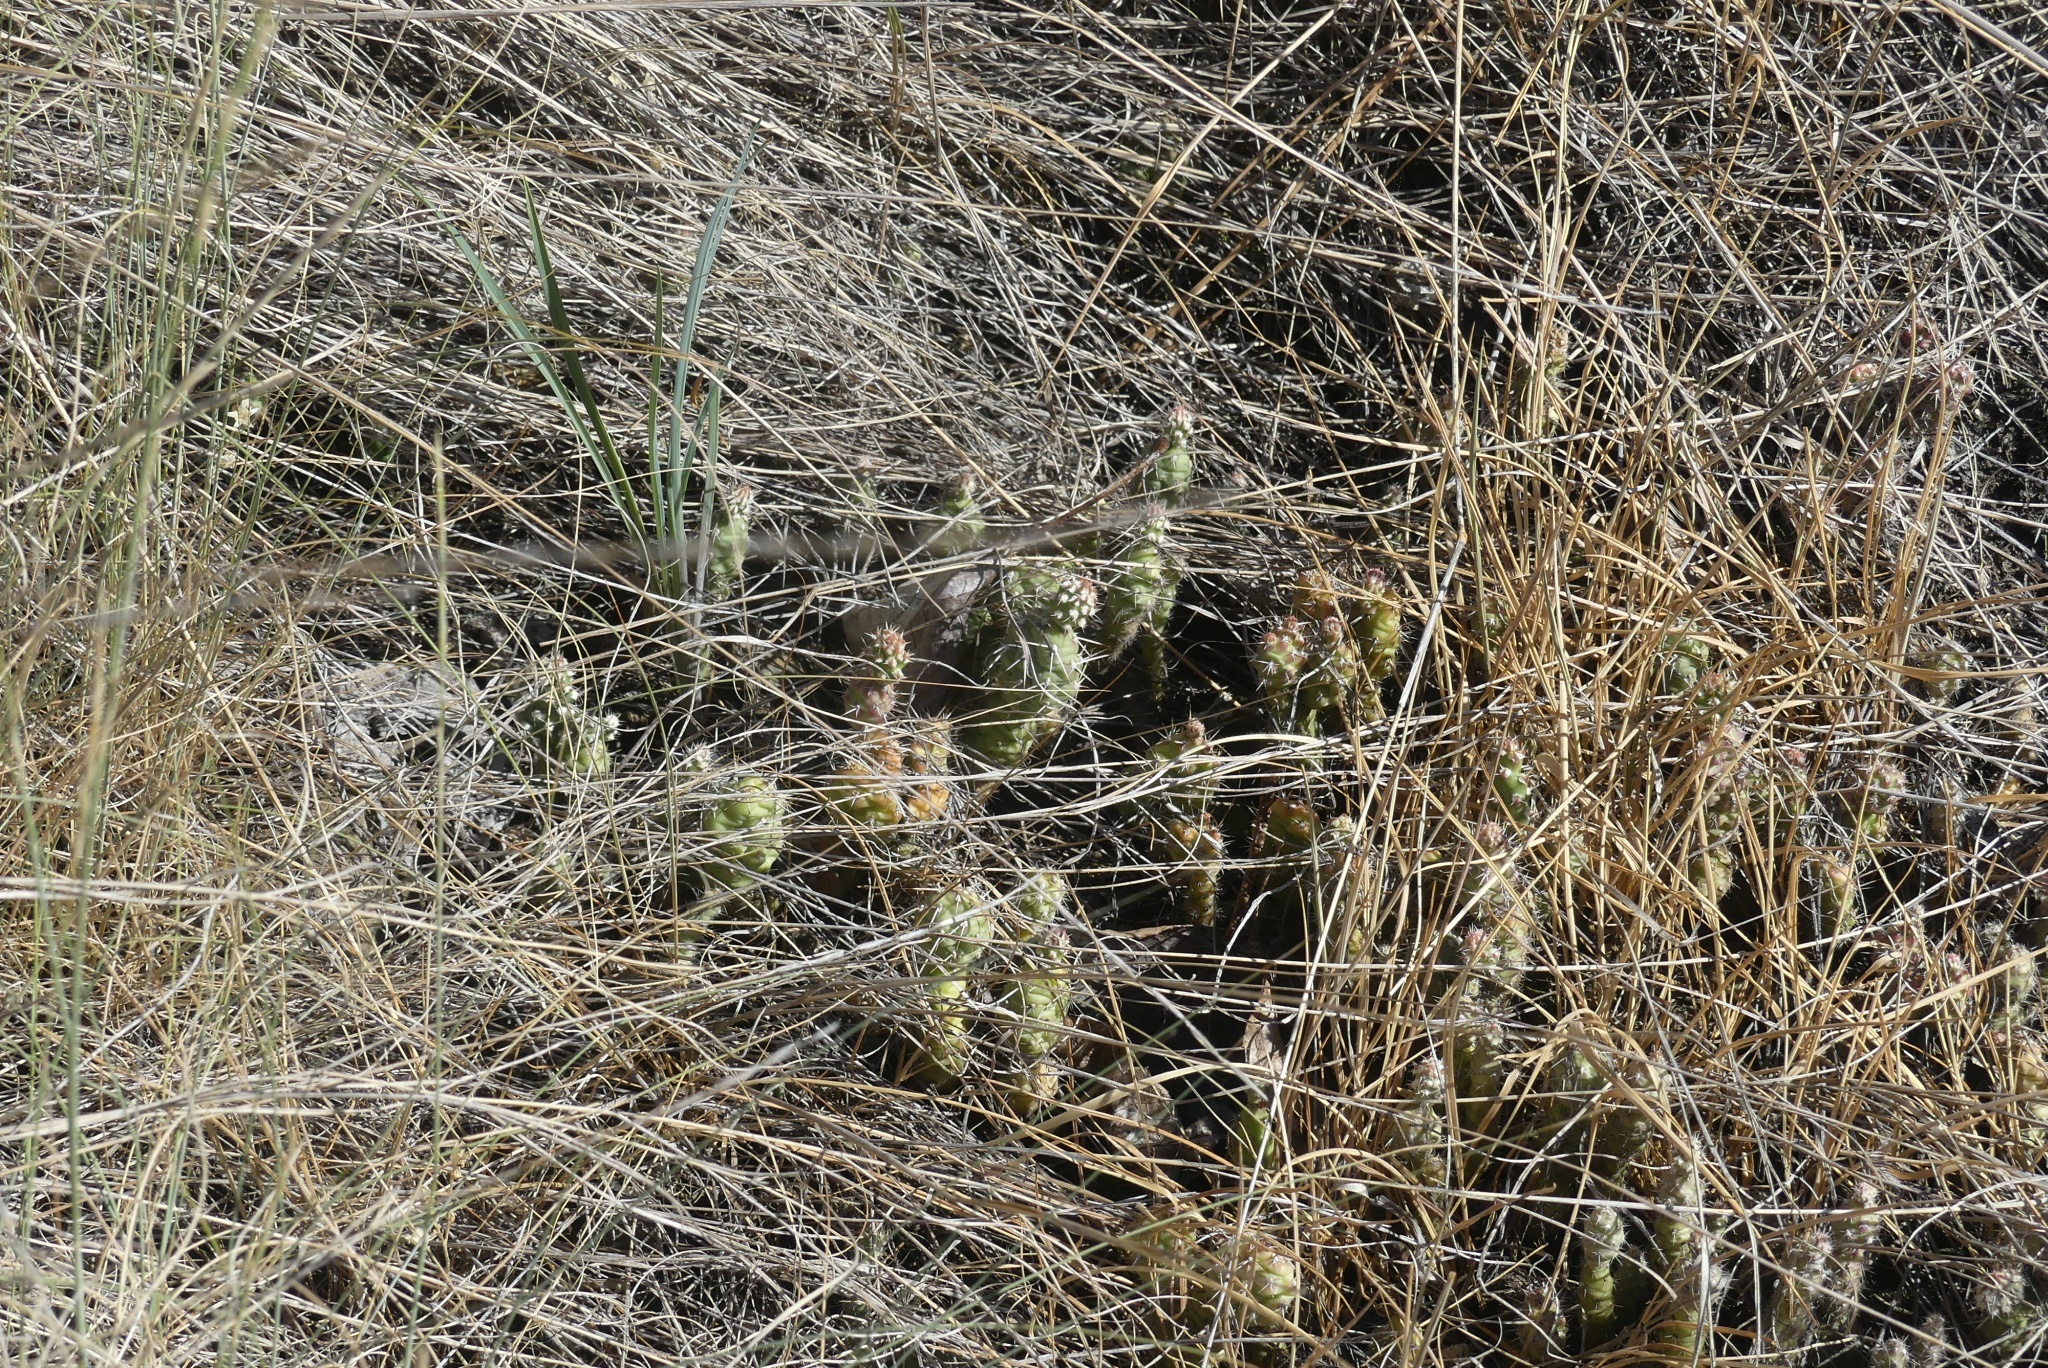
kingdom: Plantae
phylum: Tracheophyta
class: Magnoliopsida
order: Caryophyllales
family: Cactaceae
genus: Opuntia
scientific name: Opuntia fragilis
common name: Brittle cactus
